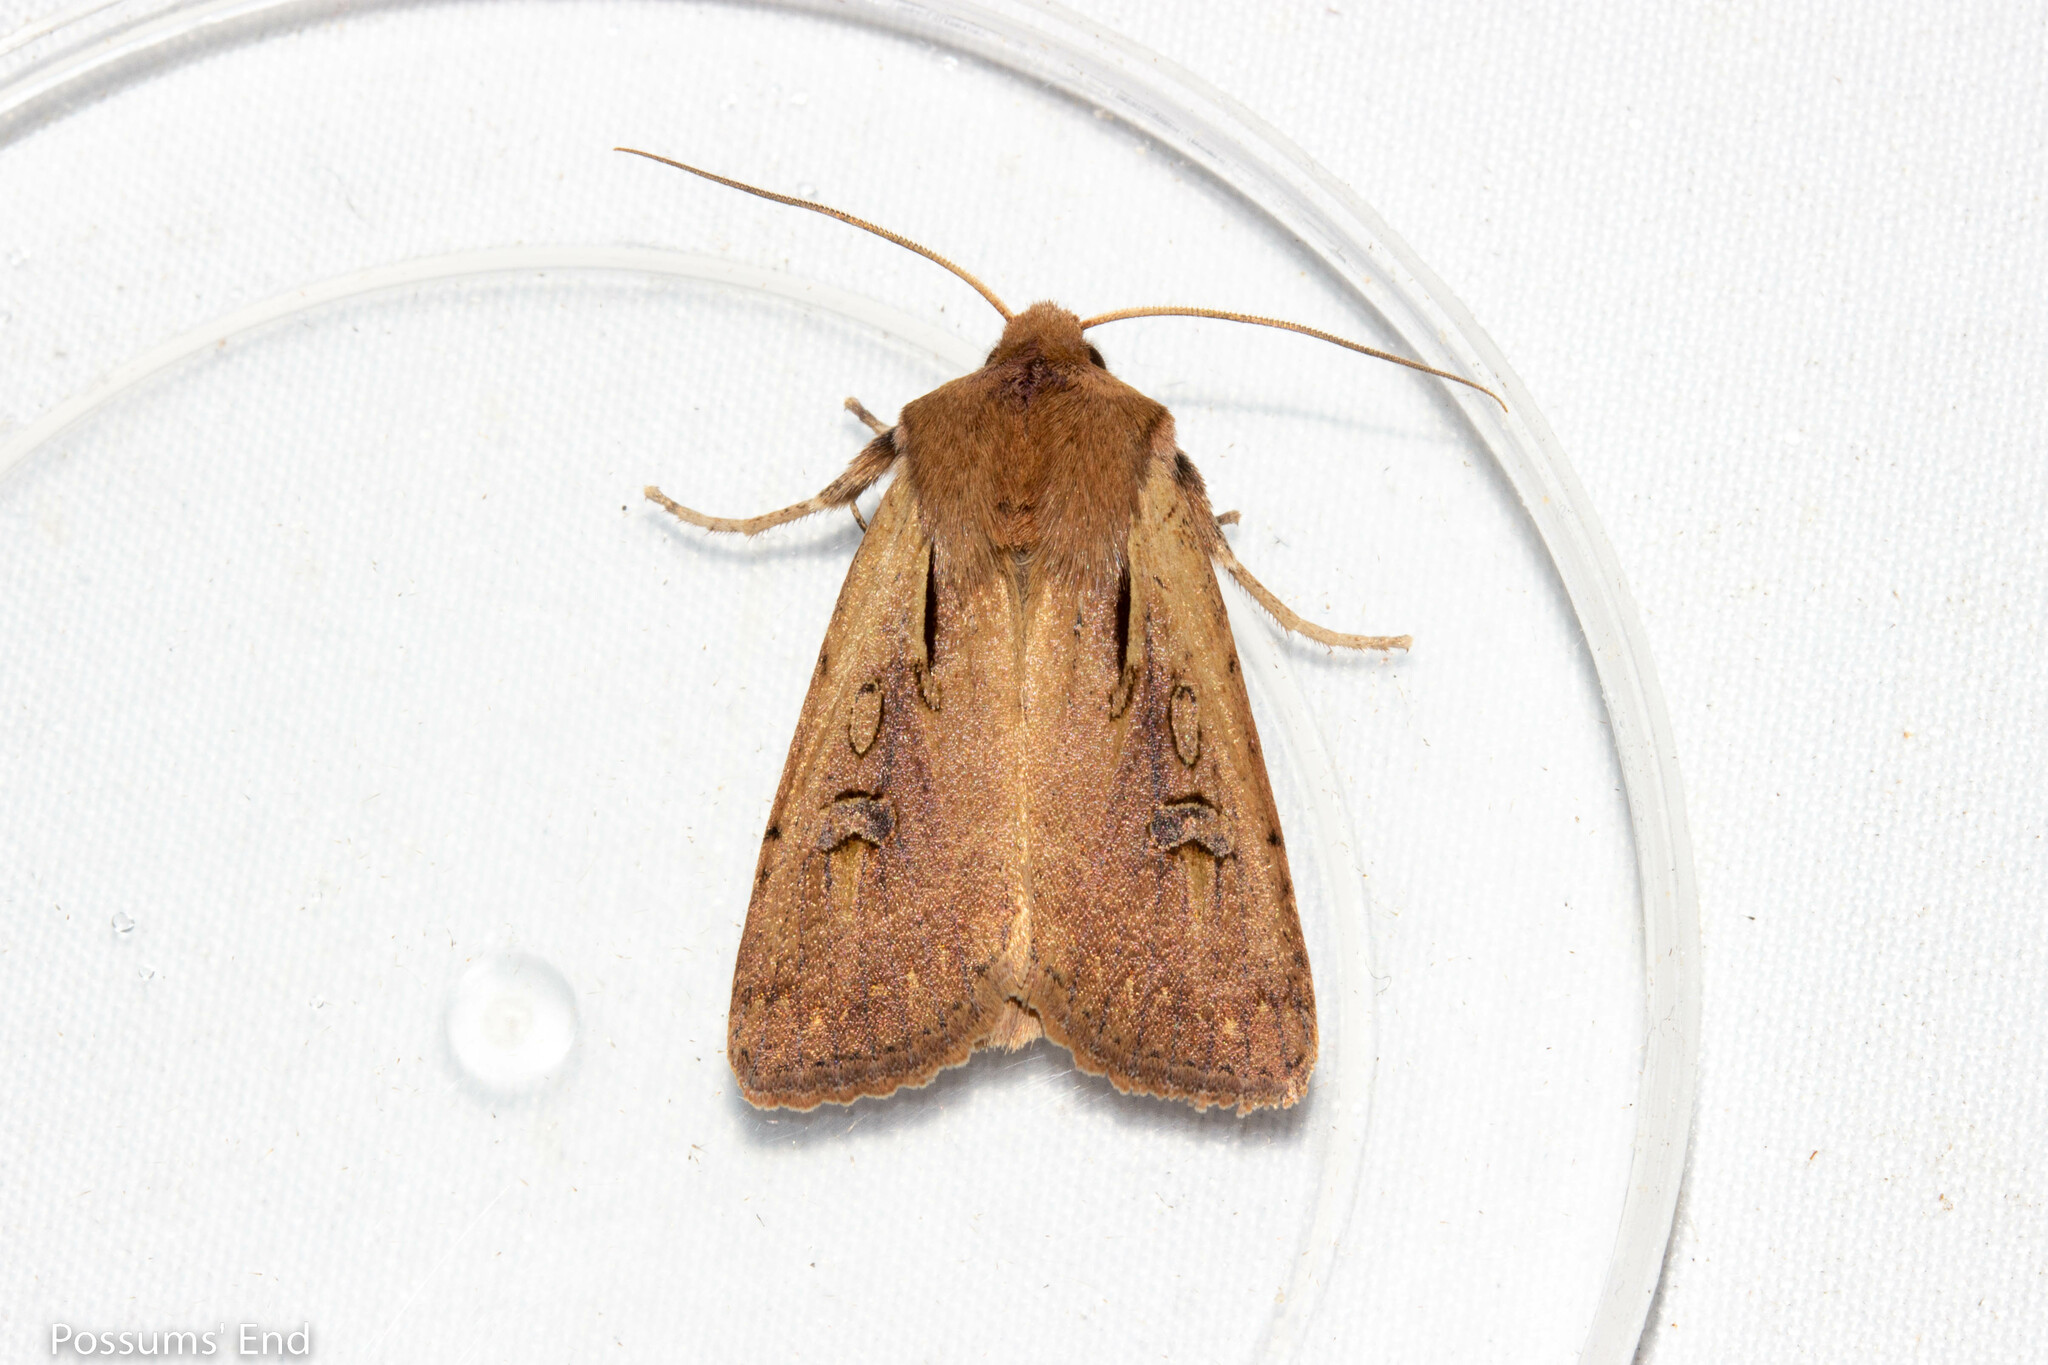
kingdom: Animalia
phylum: Arthropoda
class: Insecta
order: Lepidoptera
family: Noctuidae
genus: Ichneutica
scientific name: Ichneutica atristriga
